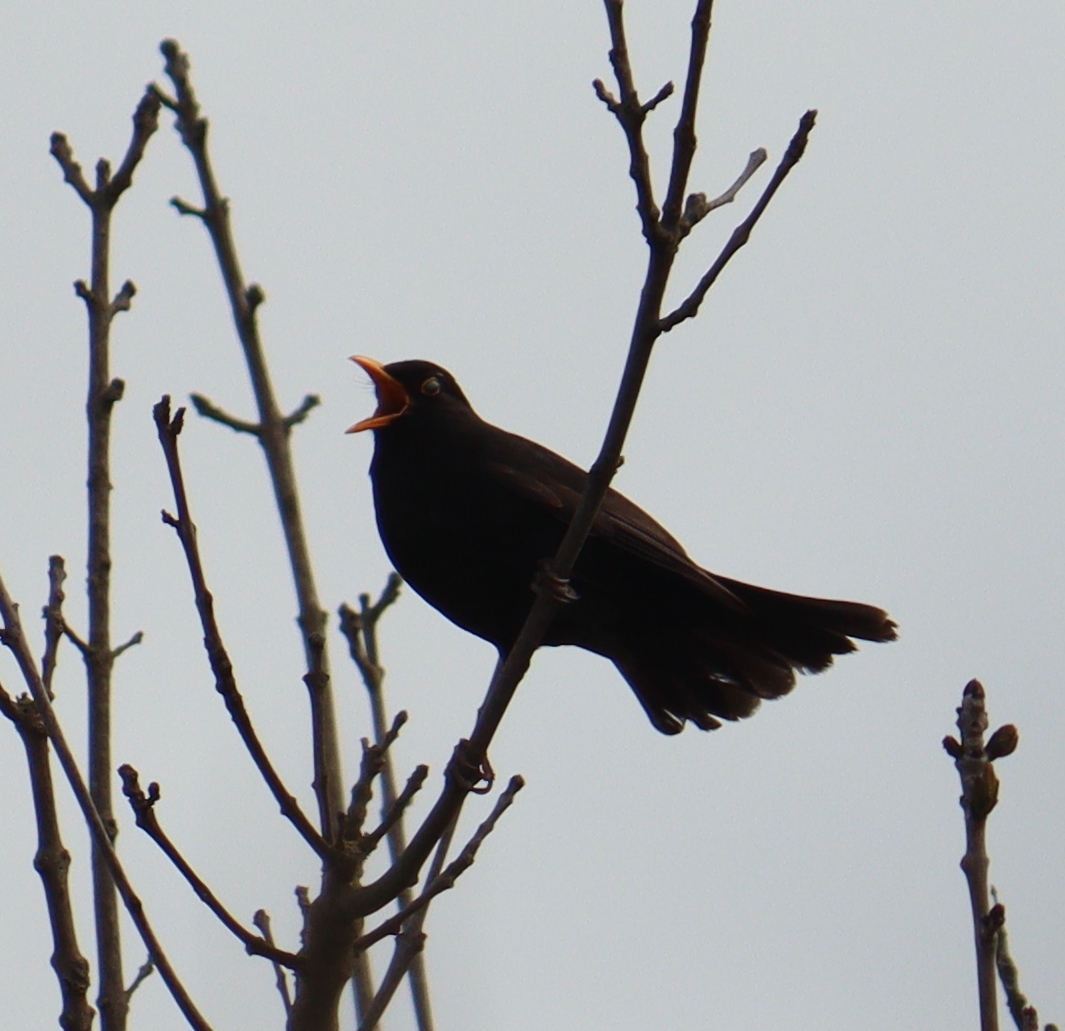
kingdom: Animalia
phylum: Chordata
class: Aves
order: Passeriformes
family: Turdidae
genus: Turdus
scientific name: Turdus merula
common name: Common blackbird
